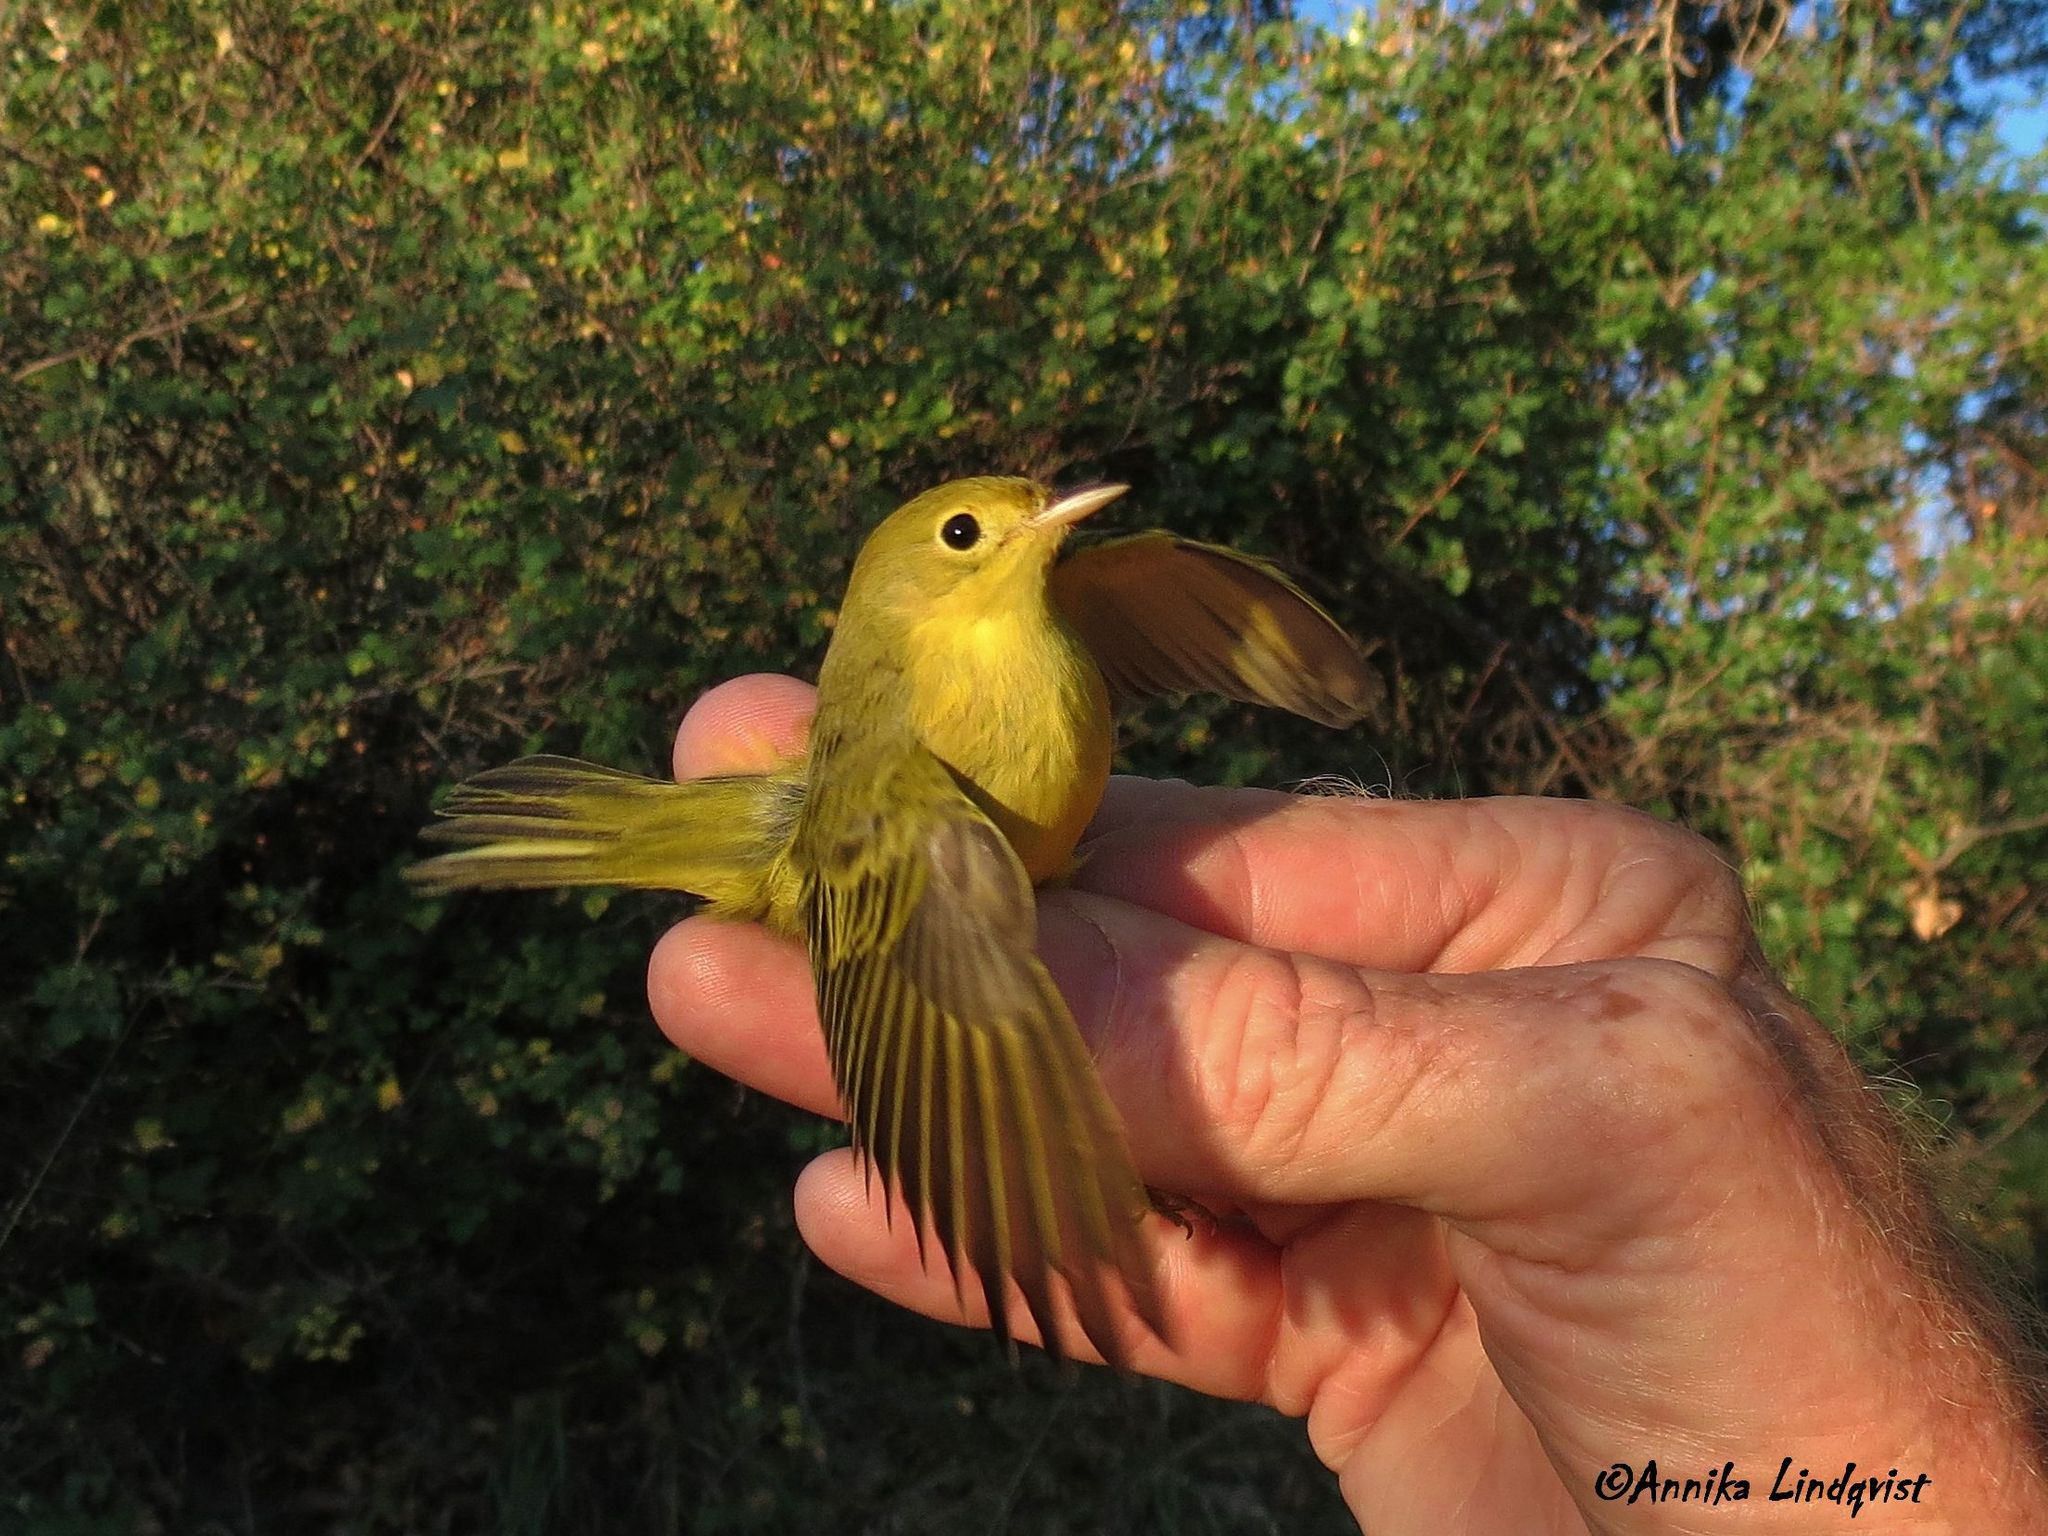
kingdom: Animalia
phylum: Chordata
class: Aves
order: Passeriformes
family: Parulidae
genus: Setophaga
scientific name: Setophaga petechia
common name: Yellow warbler
